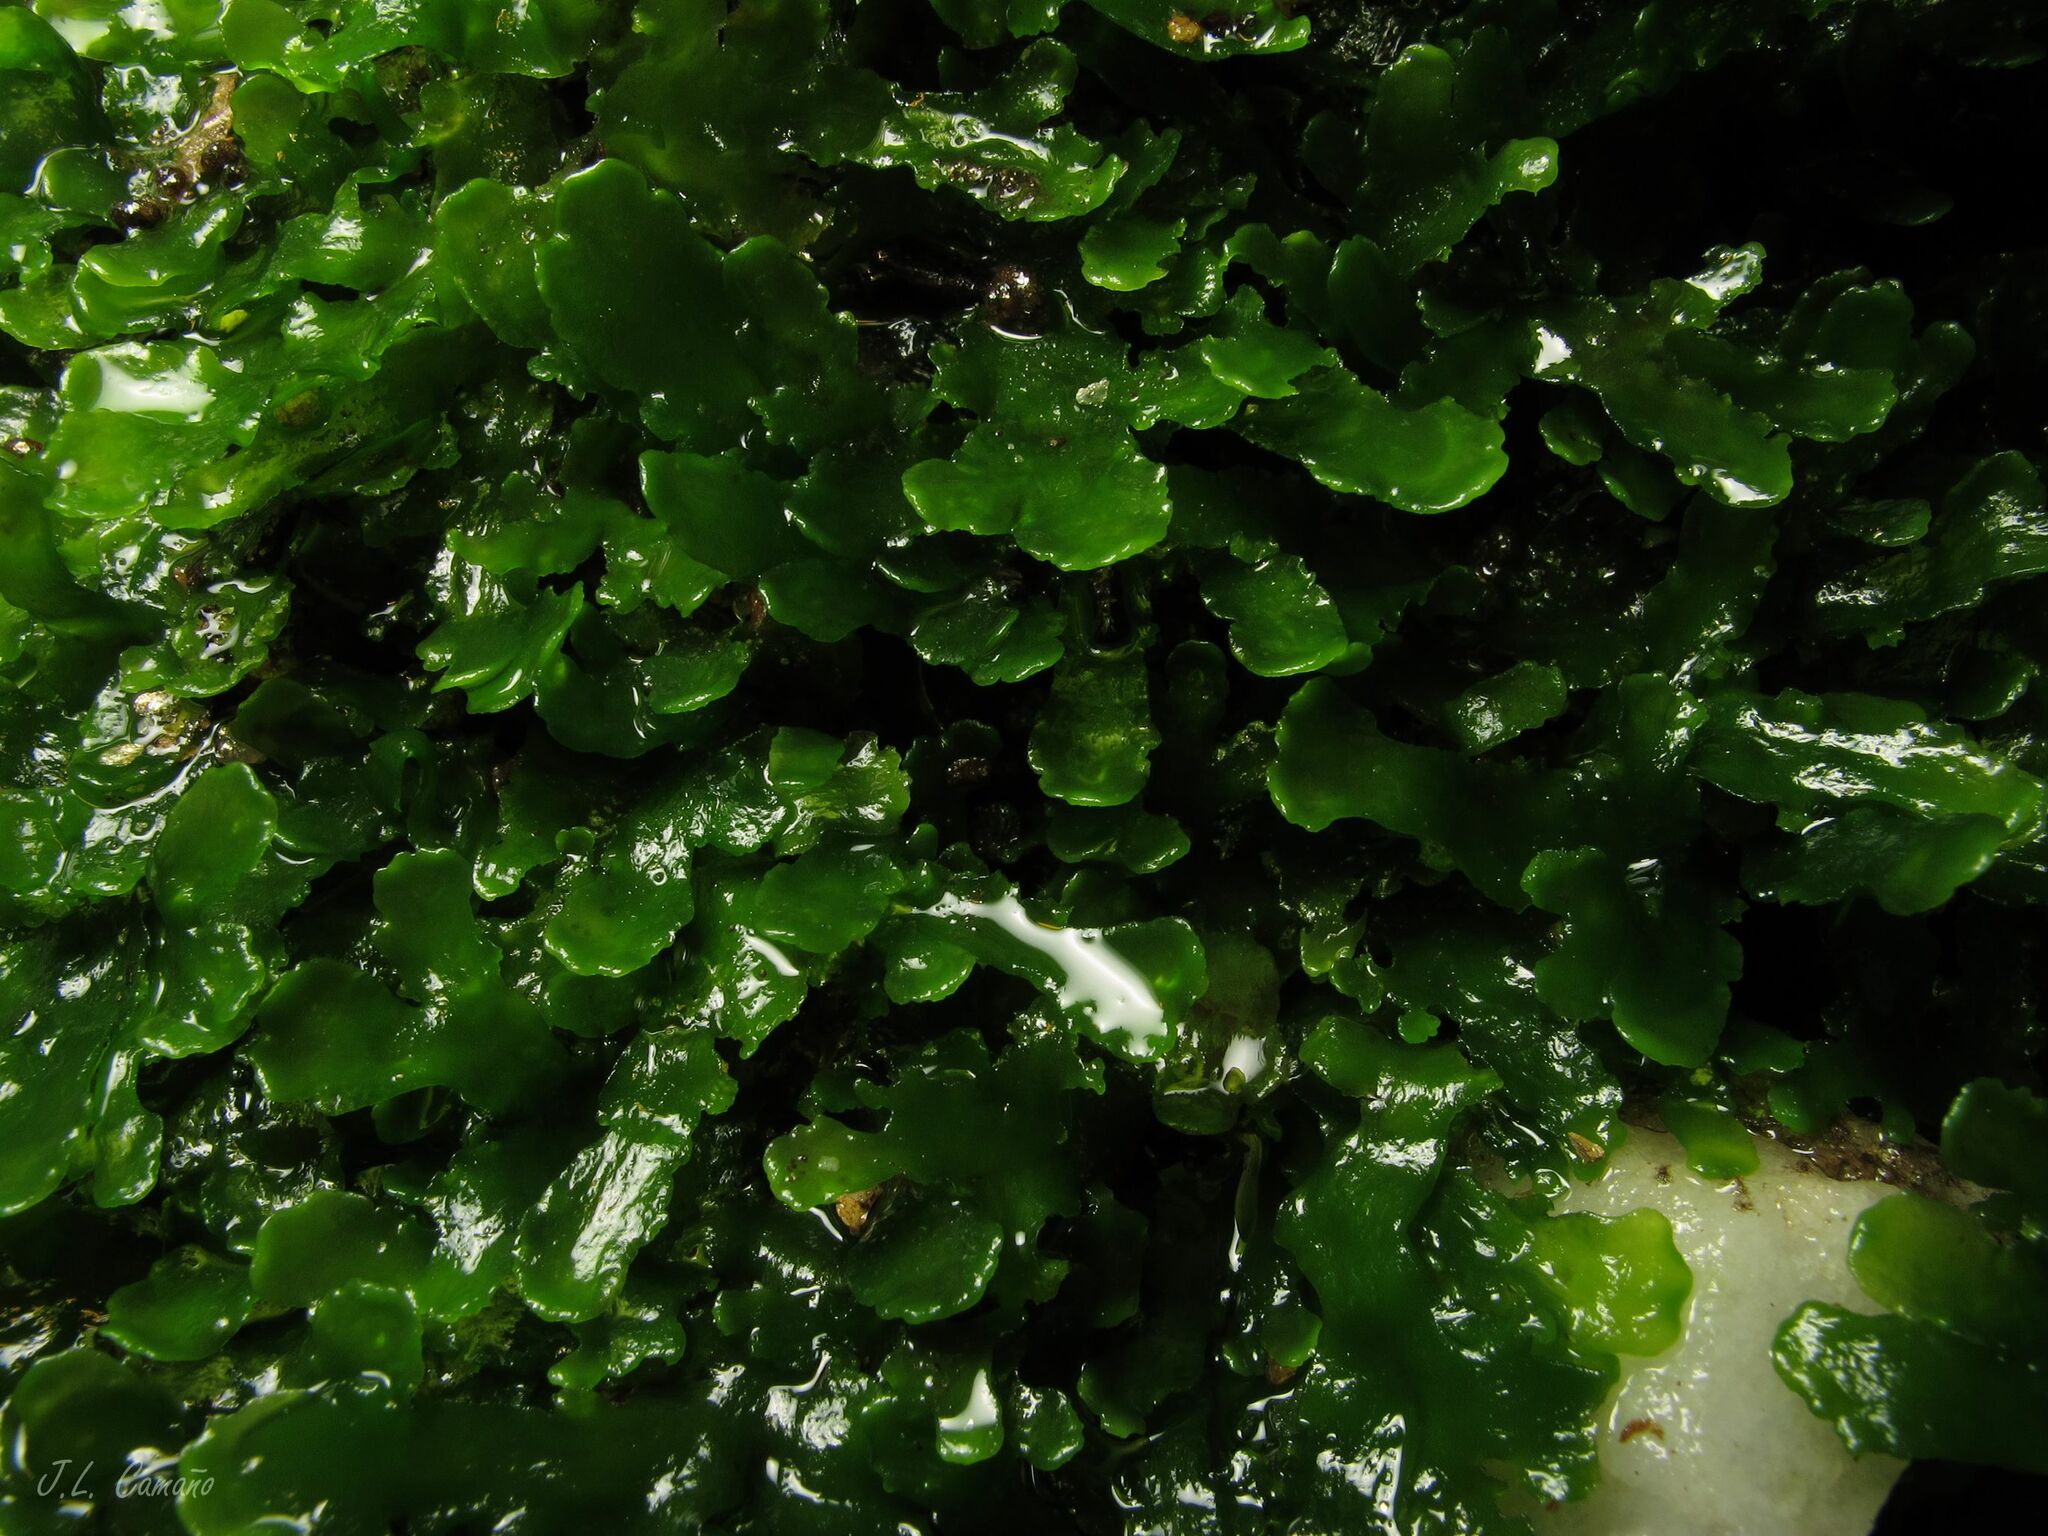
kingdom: Plantae
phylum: Marchantiophyta
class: Jungermanniopsida
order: Metzgeriales
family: Aneuraceae
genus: Aneura
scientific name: Aneura pinguis
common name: Common greasewort
